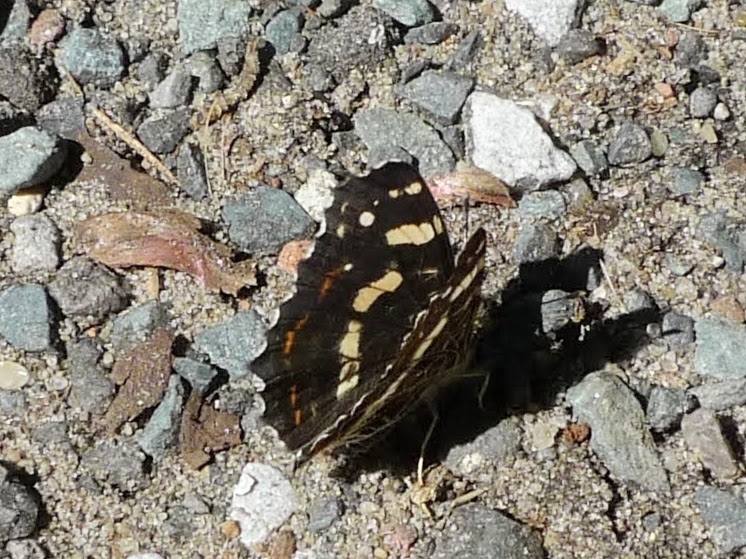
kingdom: Animalia
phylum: Arthropoda
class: Insecta
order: Lepidoptera
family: Nymphalidae
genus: Araschnia
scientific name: Araschnia levana
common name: Map butterfly
